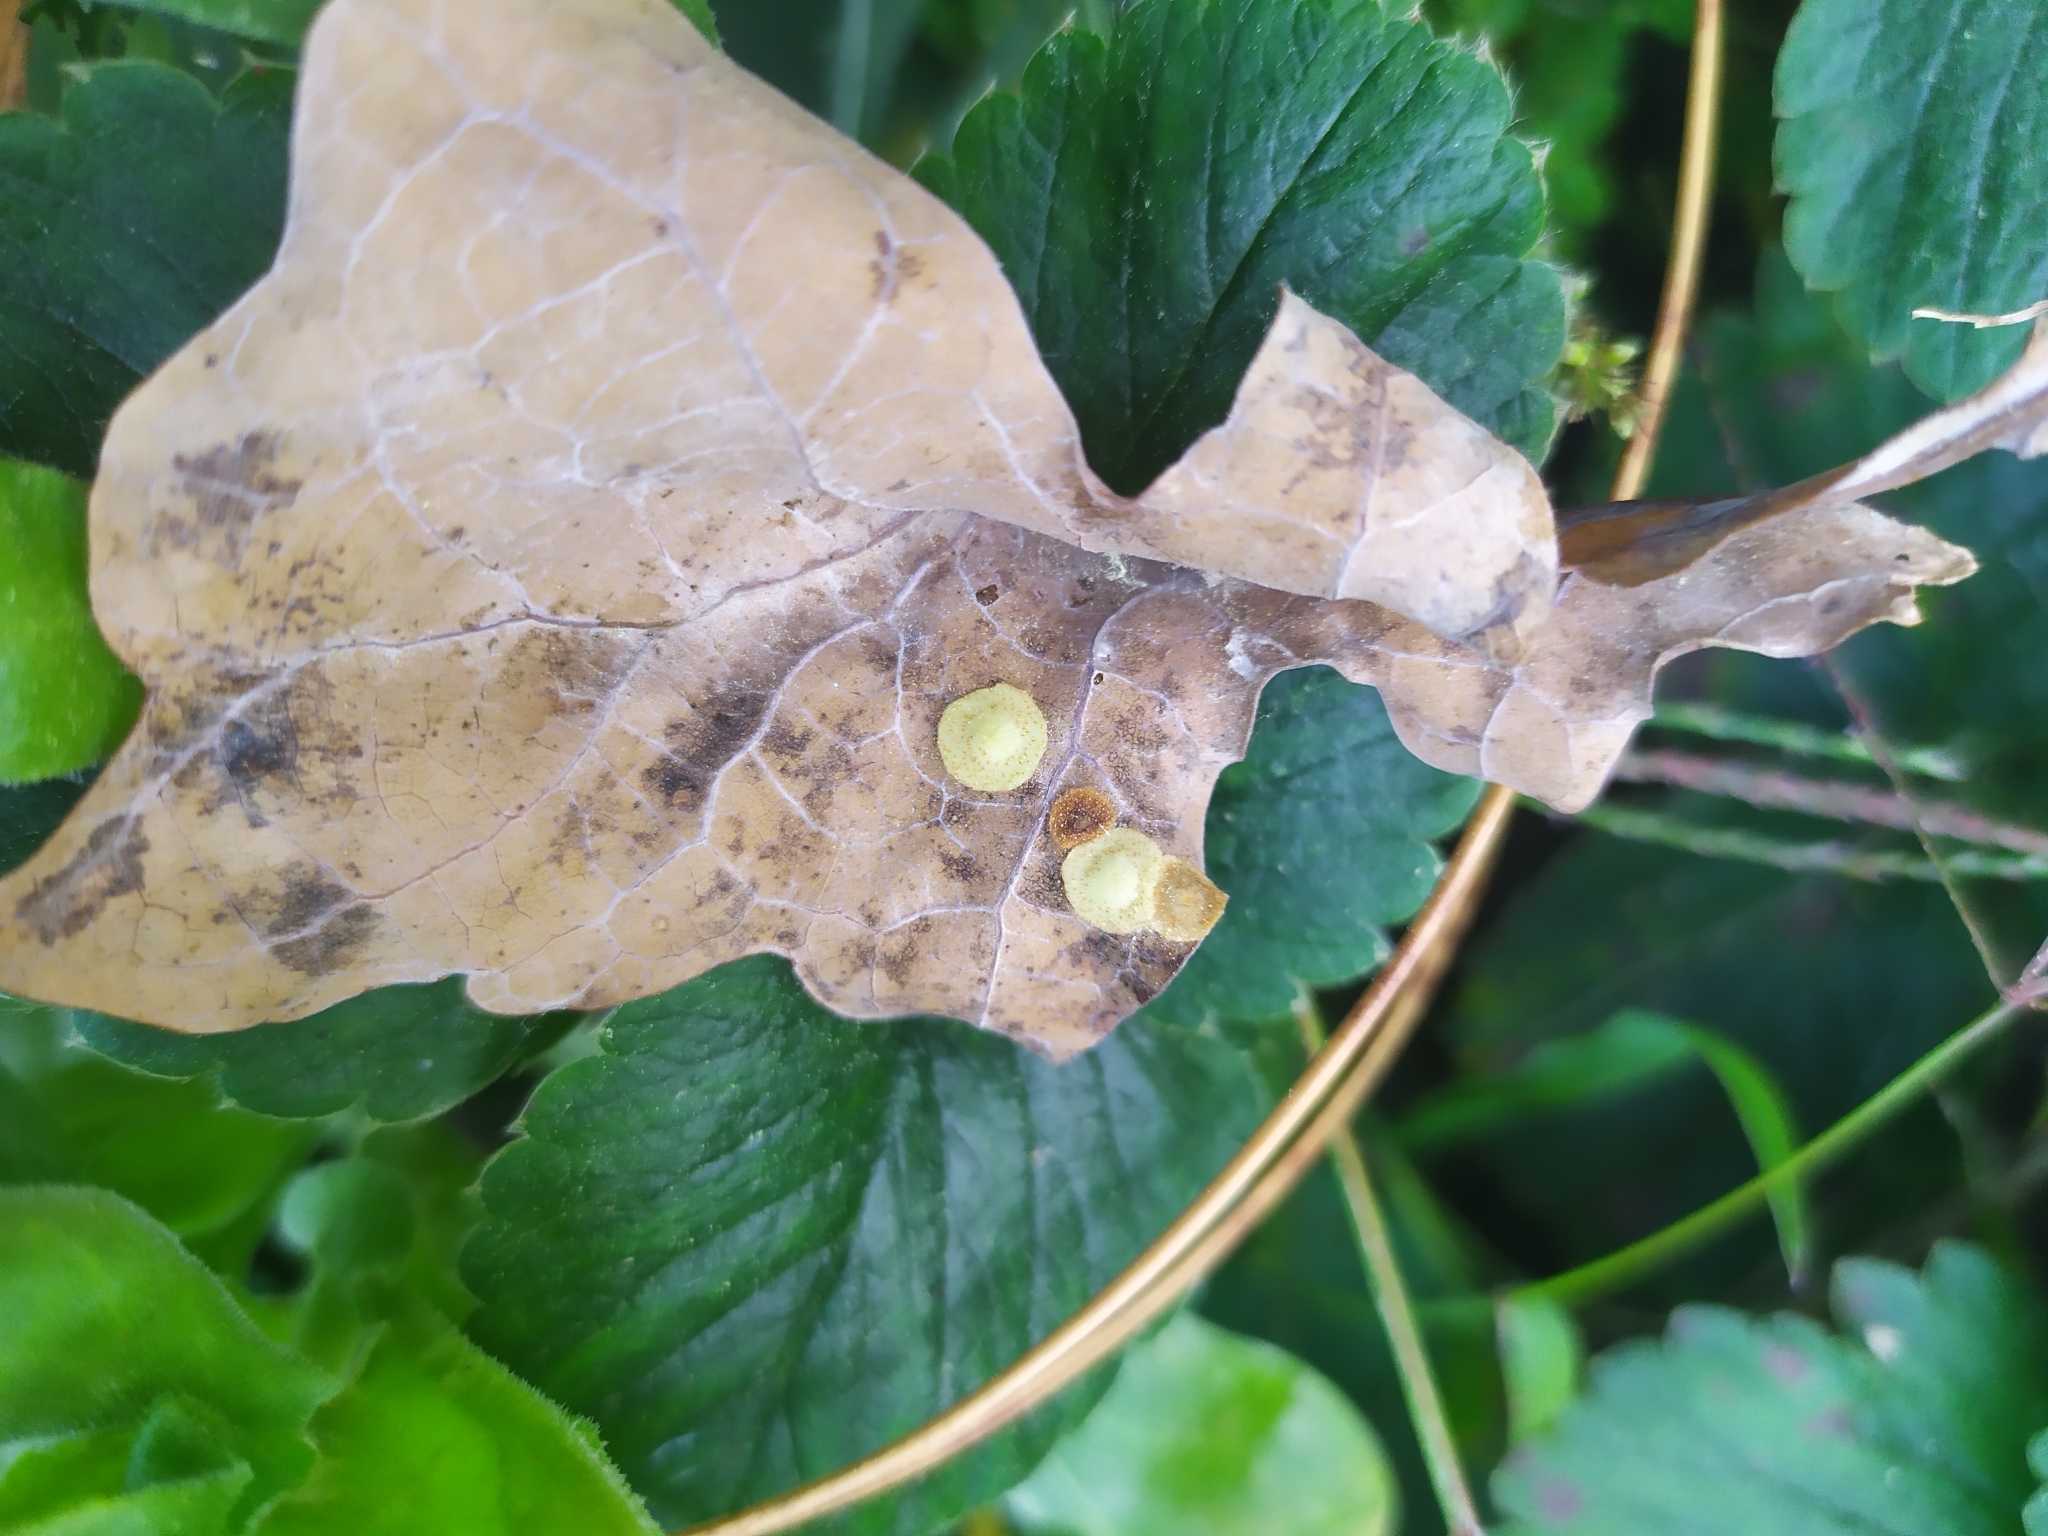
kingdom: Animalia
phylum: Arthropoda
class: Insecta
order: Hymenoptera
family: Cynipidae
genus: Neuroterus
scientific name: Neuroterus quercusbaccarum
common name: Common spangle gall
